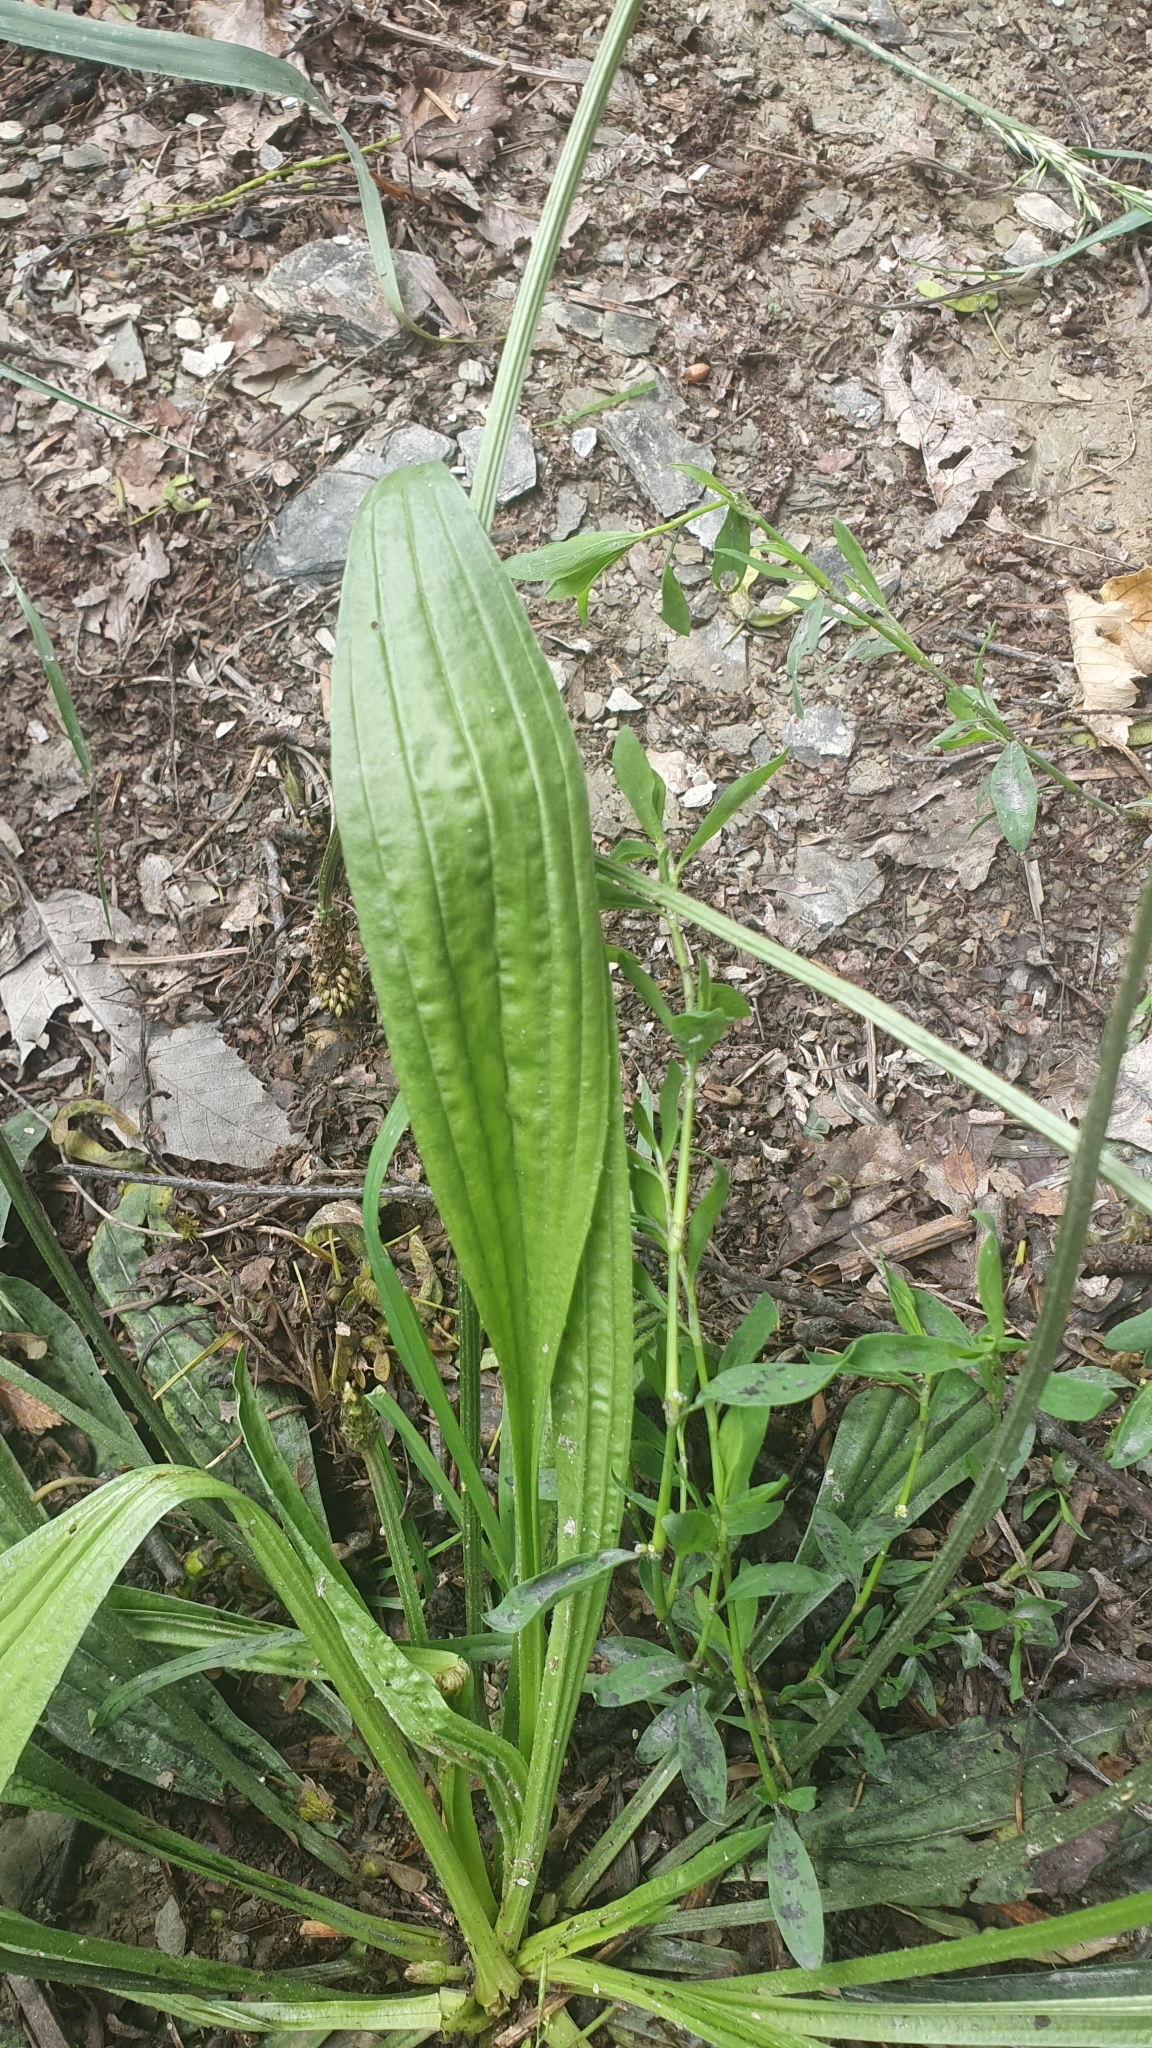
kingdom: Plantae
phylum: Tracheophyta
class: Magnoliopsida
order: Lamiales
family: Plantaginaceae
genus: Plantago
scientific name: Plantago lanceolata
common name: Ribwort plantain
